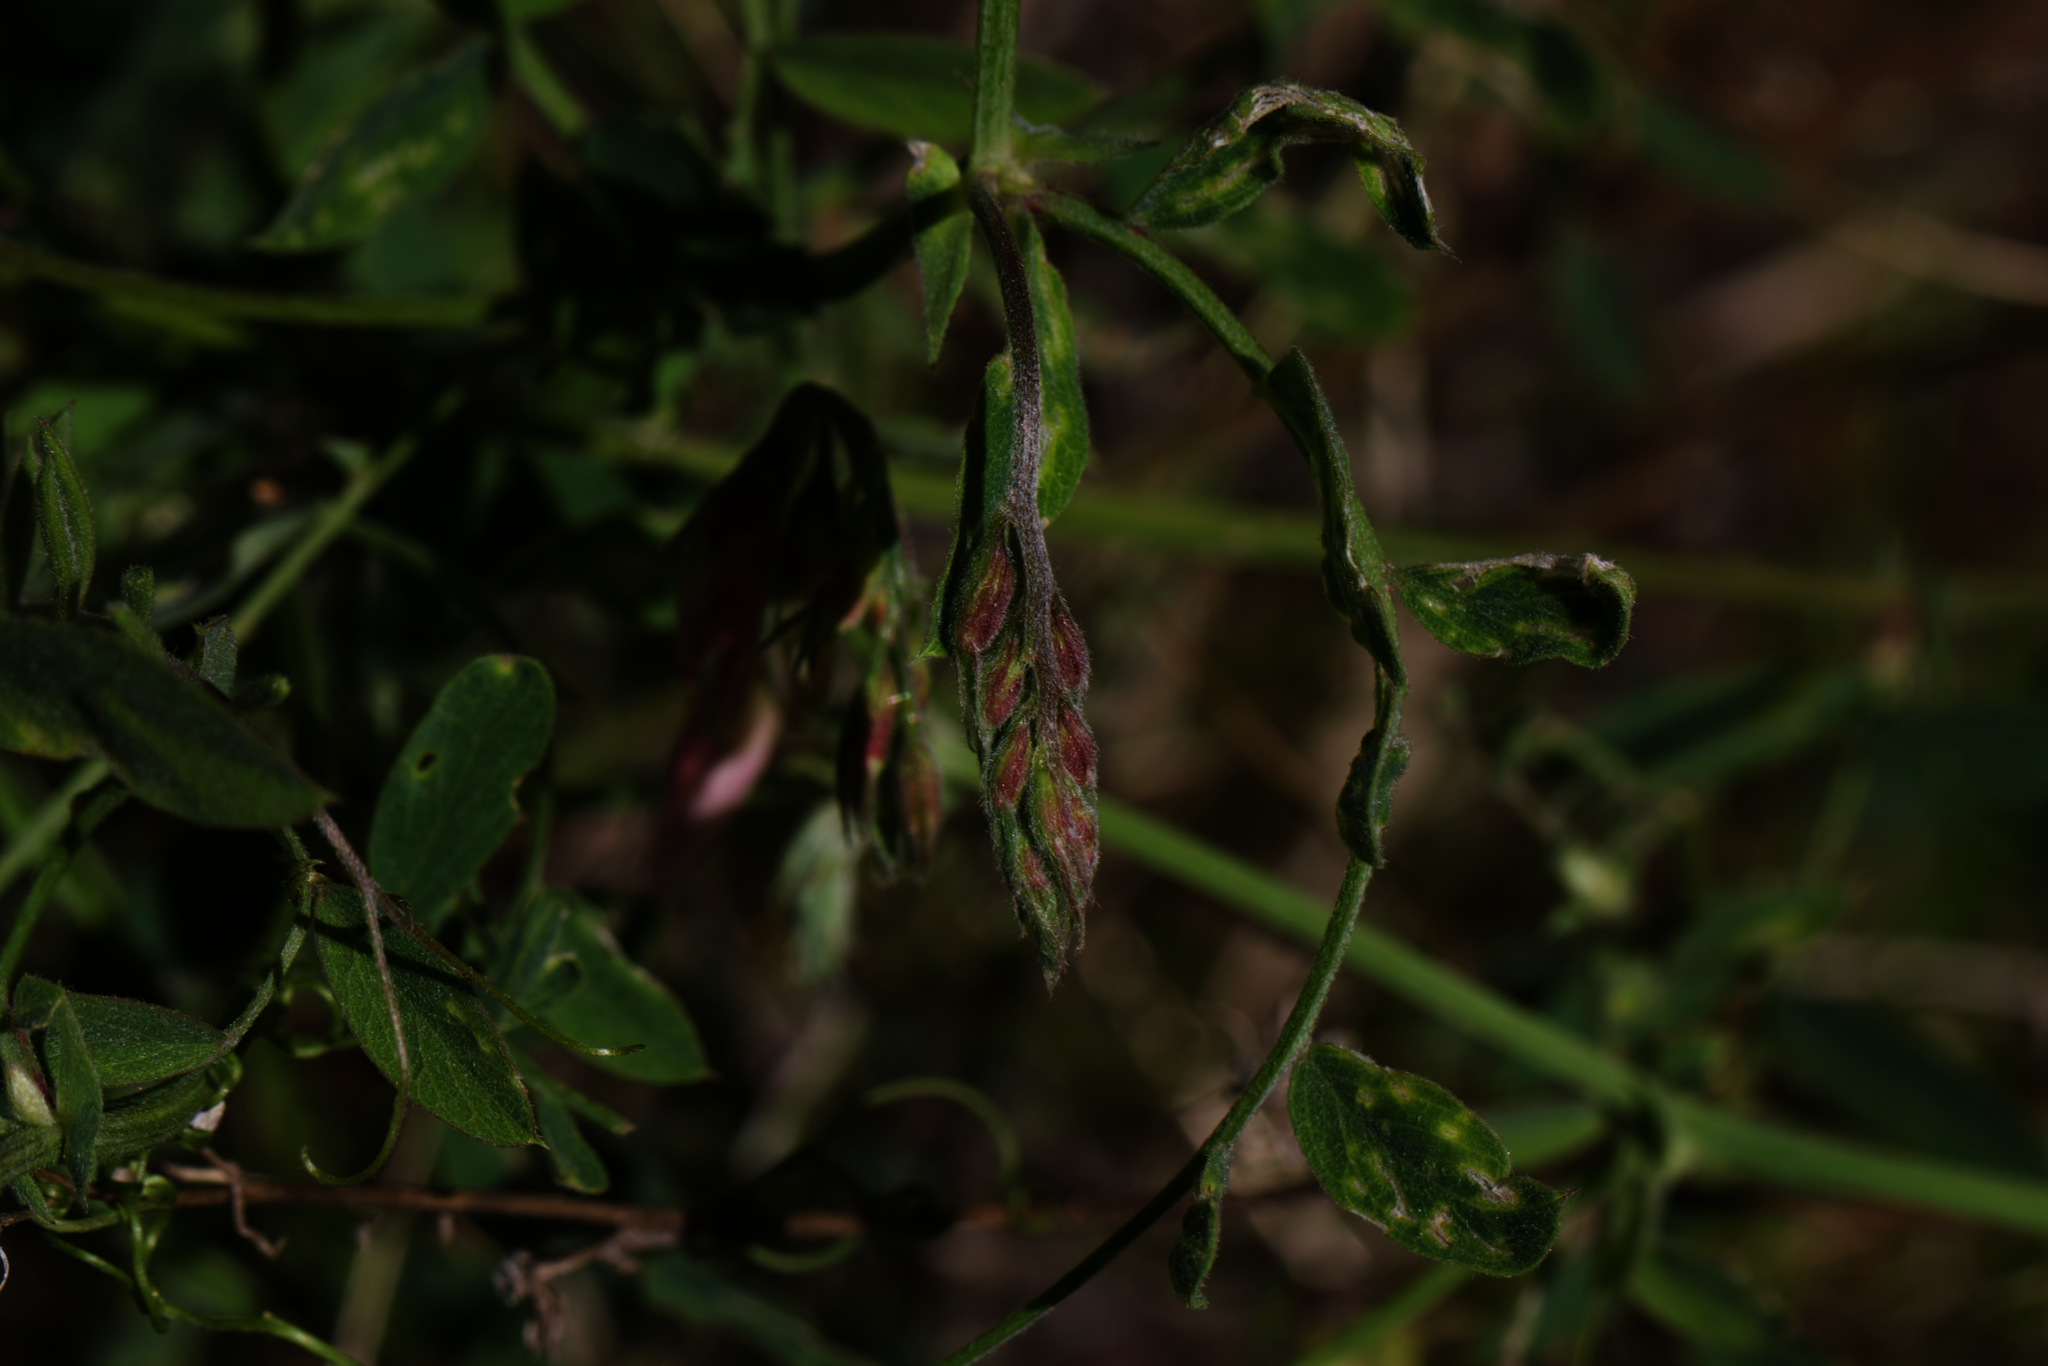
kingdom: Plantae
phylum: Tracheophyta
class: Magnoliopsida
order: Fabales
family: Fabaceae
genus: Lathyrus
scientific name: Lathyrus vestitus
